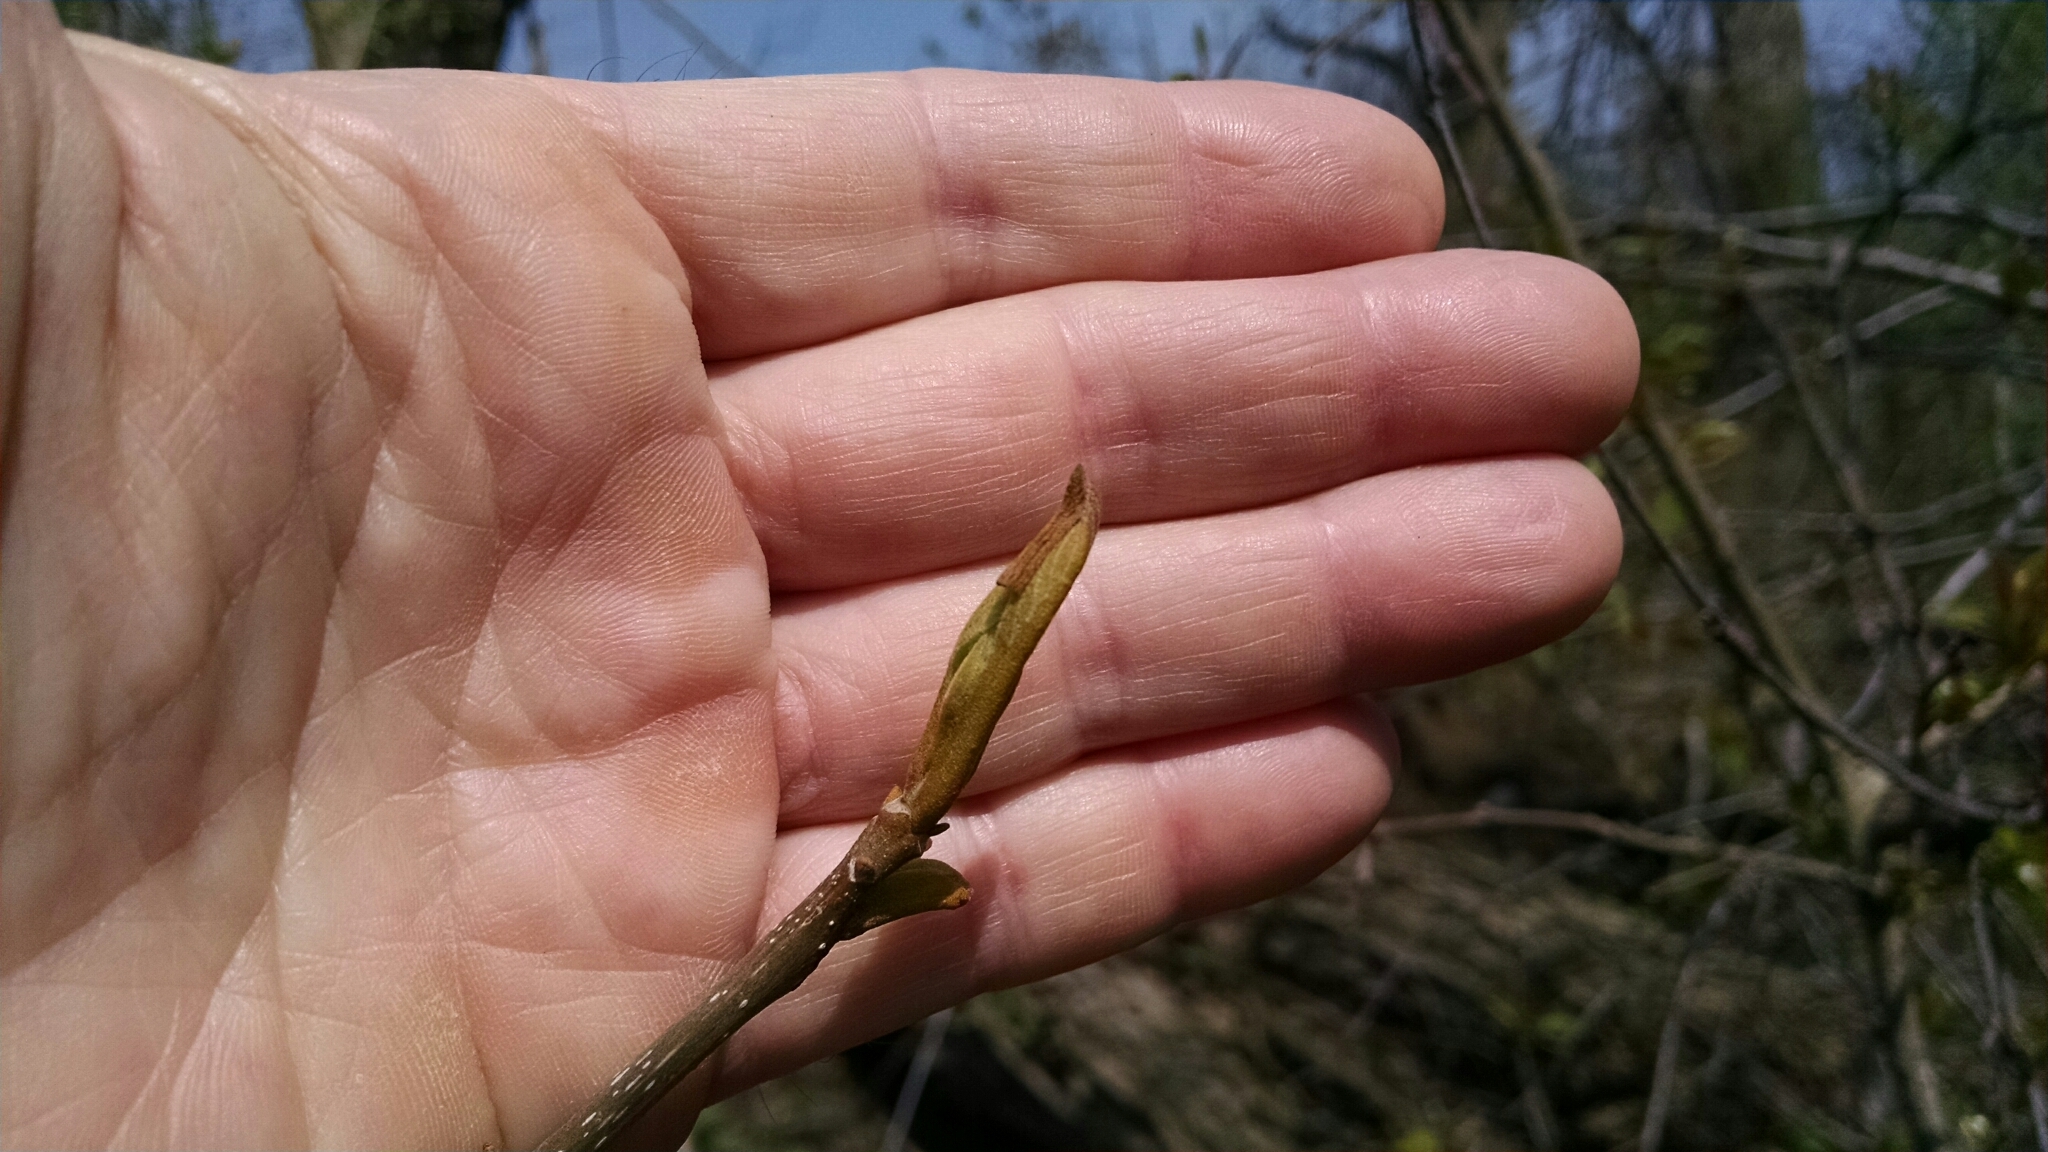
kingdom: Plantae
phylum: Tracheophyta
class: Magnoliopsida
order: Fagales
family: Juglandaceae
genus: Carya
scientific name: Carya cordiformis
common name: Bitternut hickory
